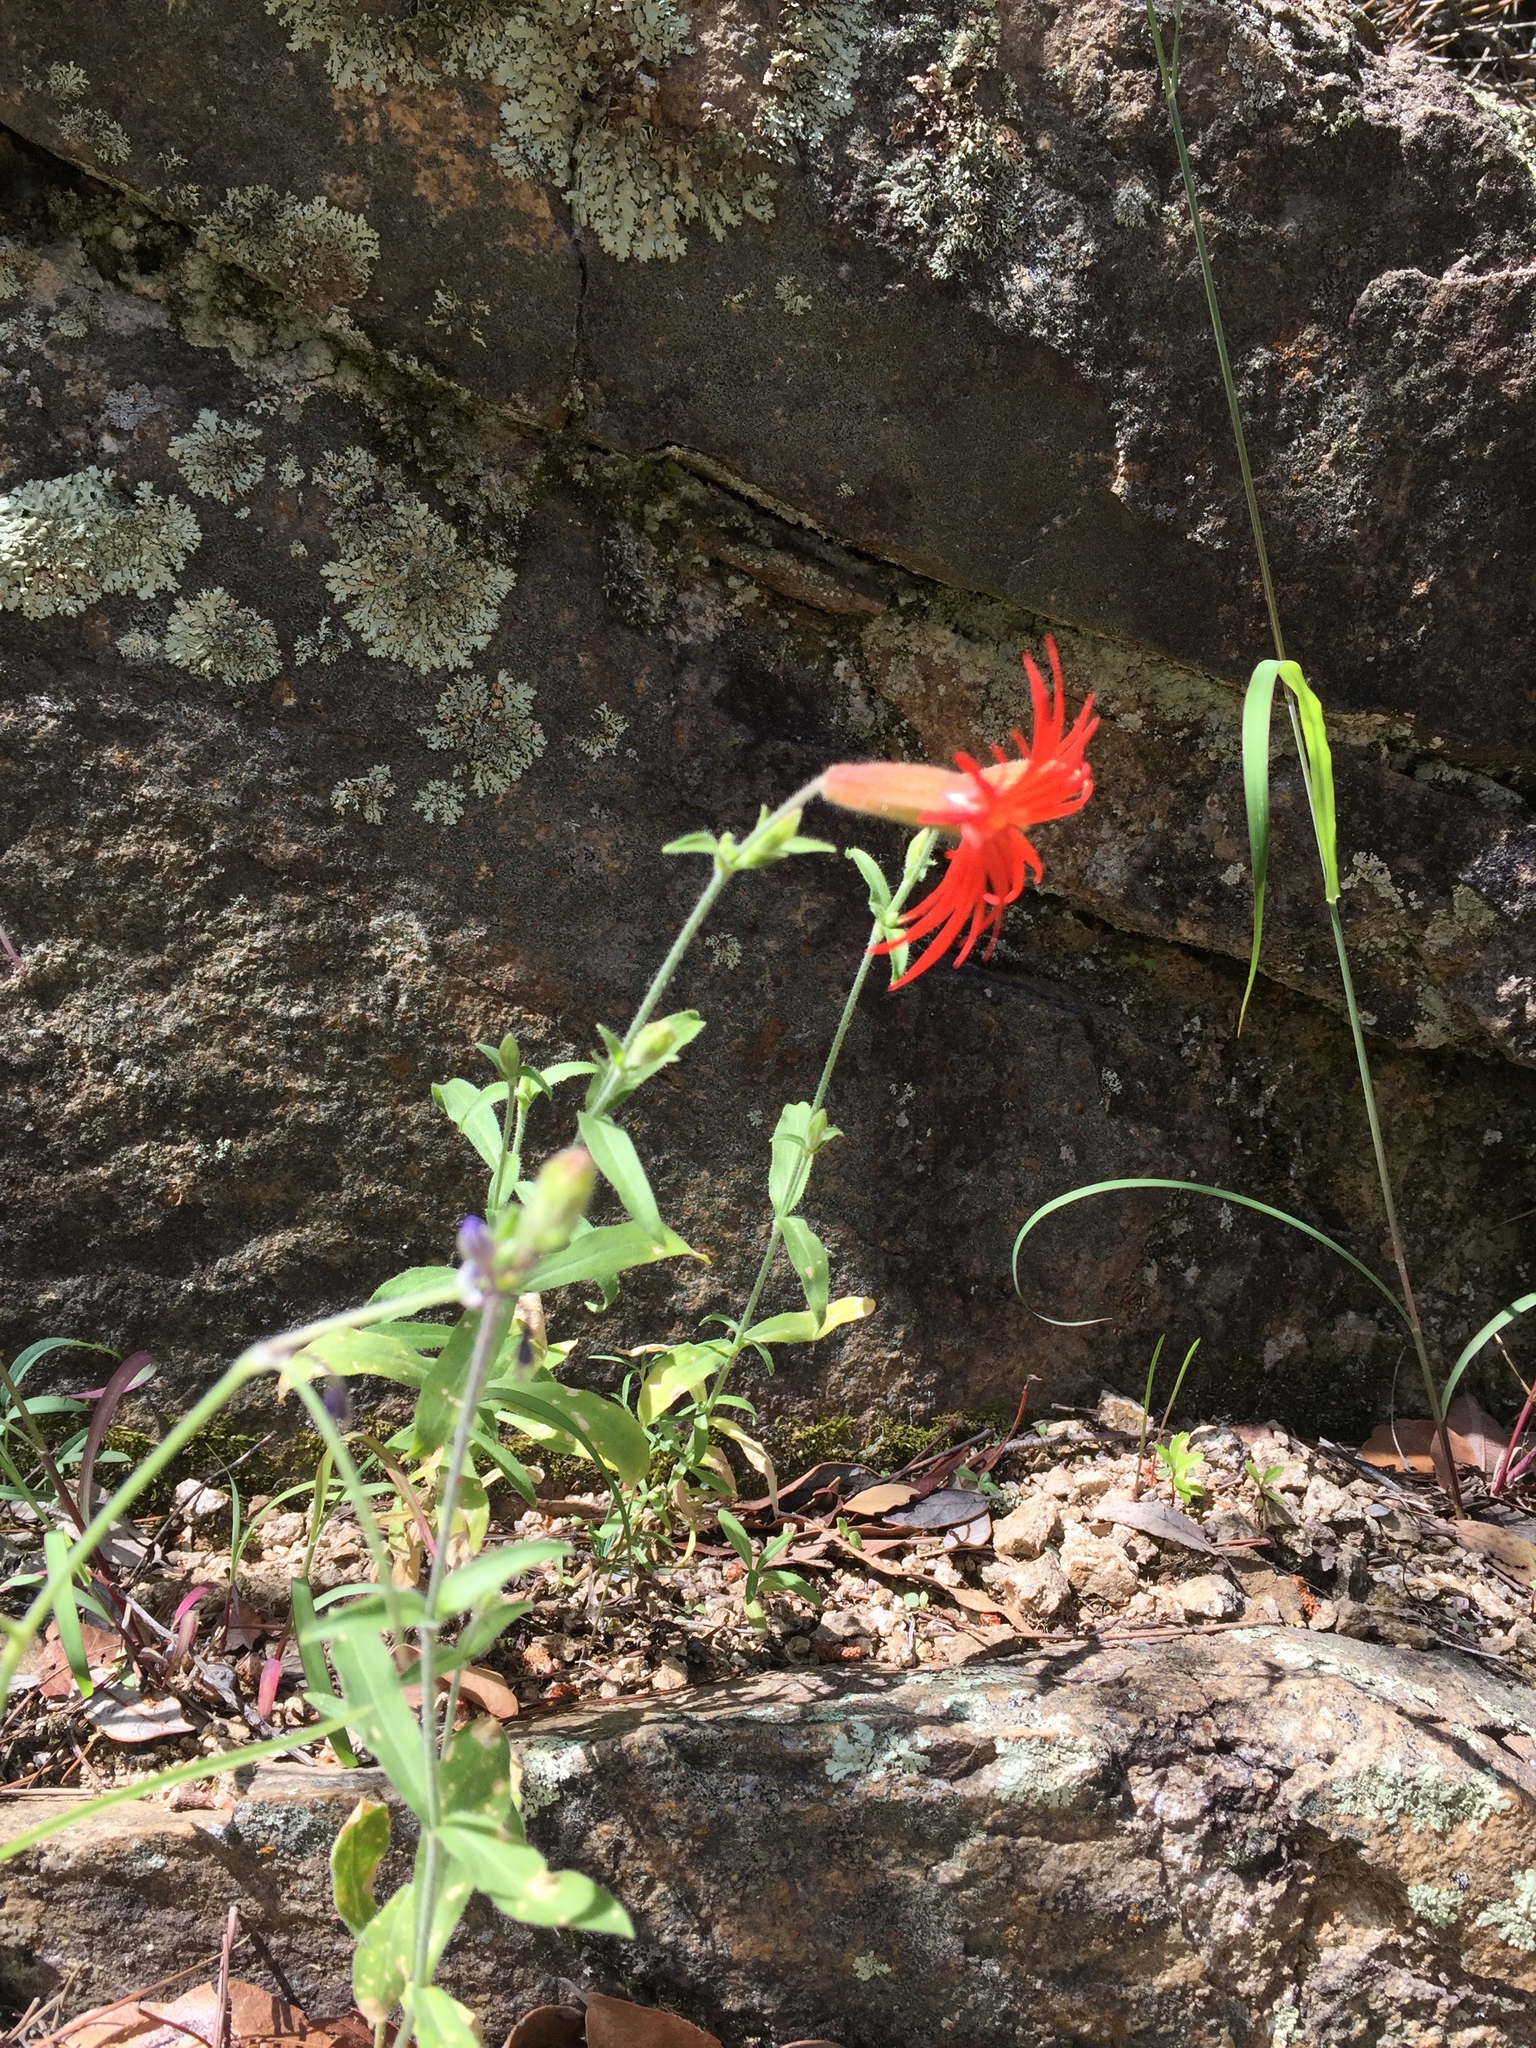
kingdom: Plantae
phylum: Tracheophyta
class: Magnoliopsida
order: Caryophyllales
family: Caryophyllaceae
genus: Silene
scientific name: Silene laciniata
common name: Indian-pink
